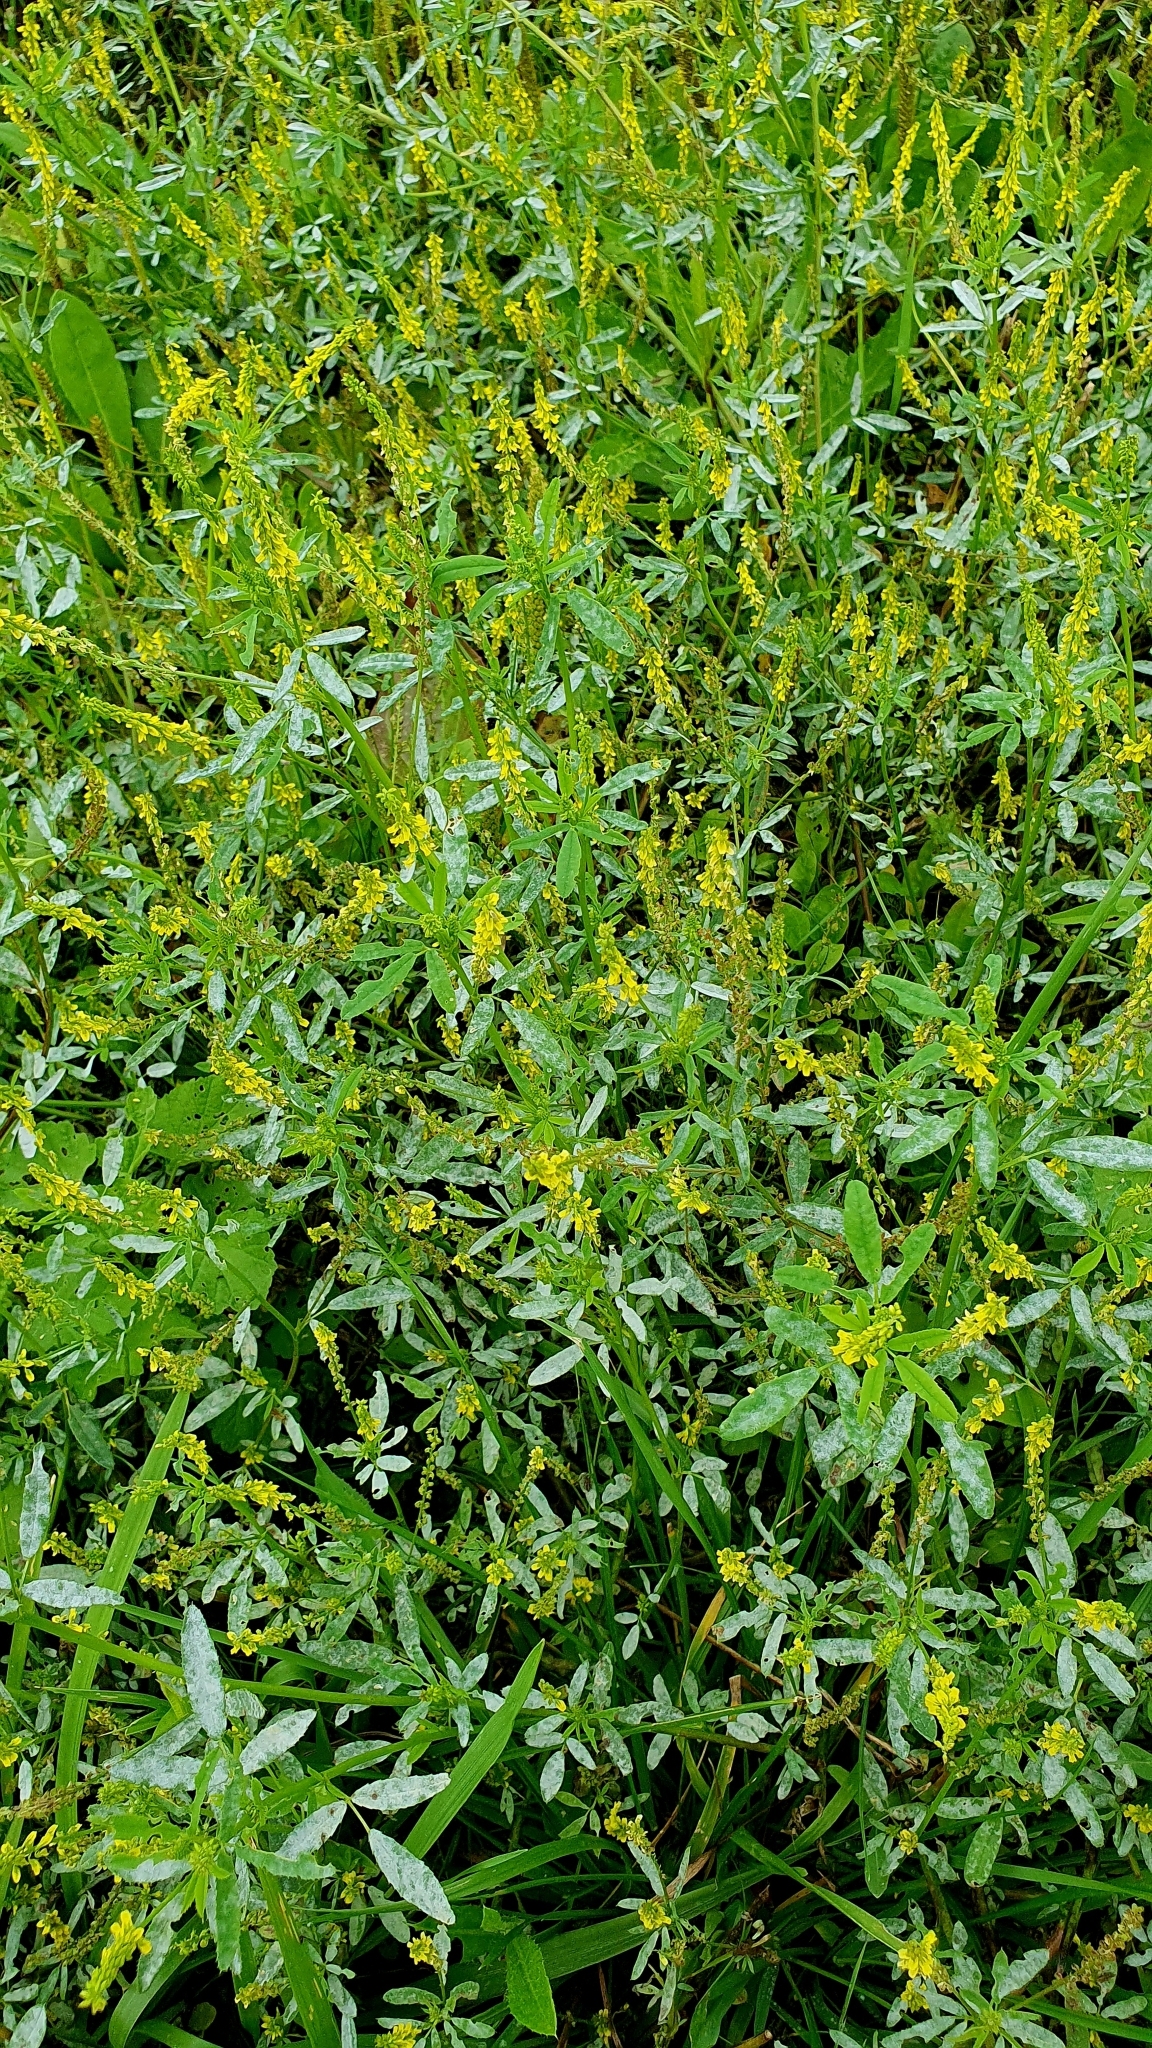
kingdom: Plantae
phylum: Tracheophyta
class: Magnoliopsida
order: Fabales
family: Fabaceae
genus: Melilotus
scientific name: Melilotus officinalis
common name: Sweetclover
